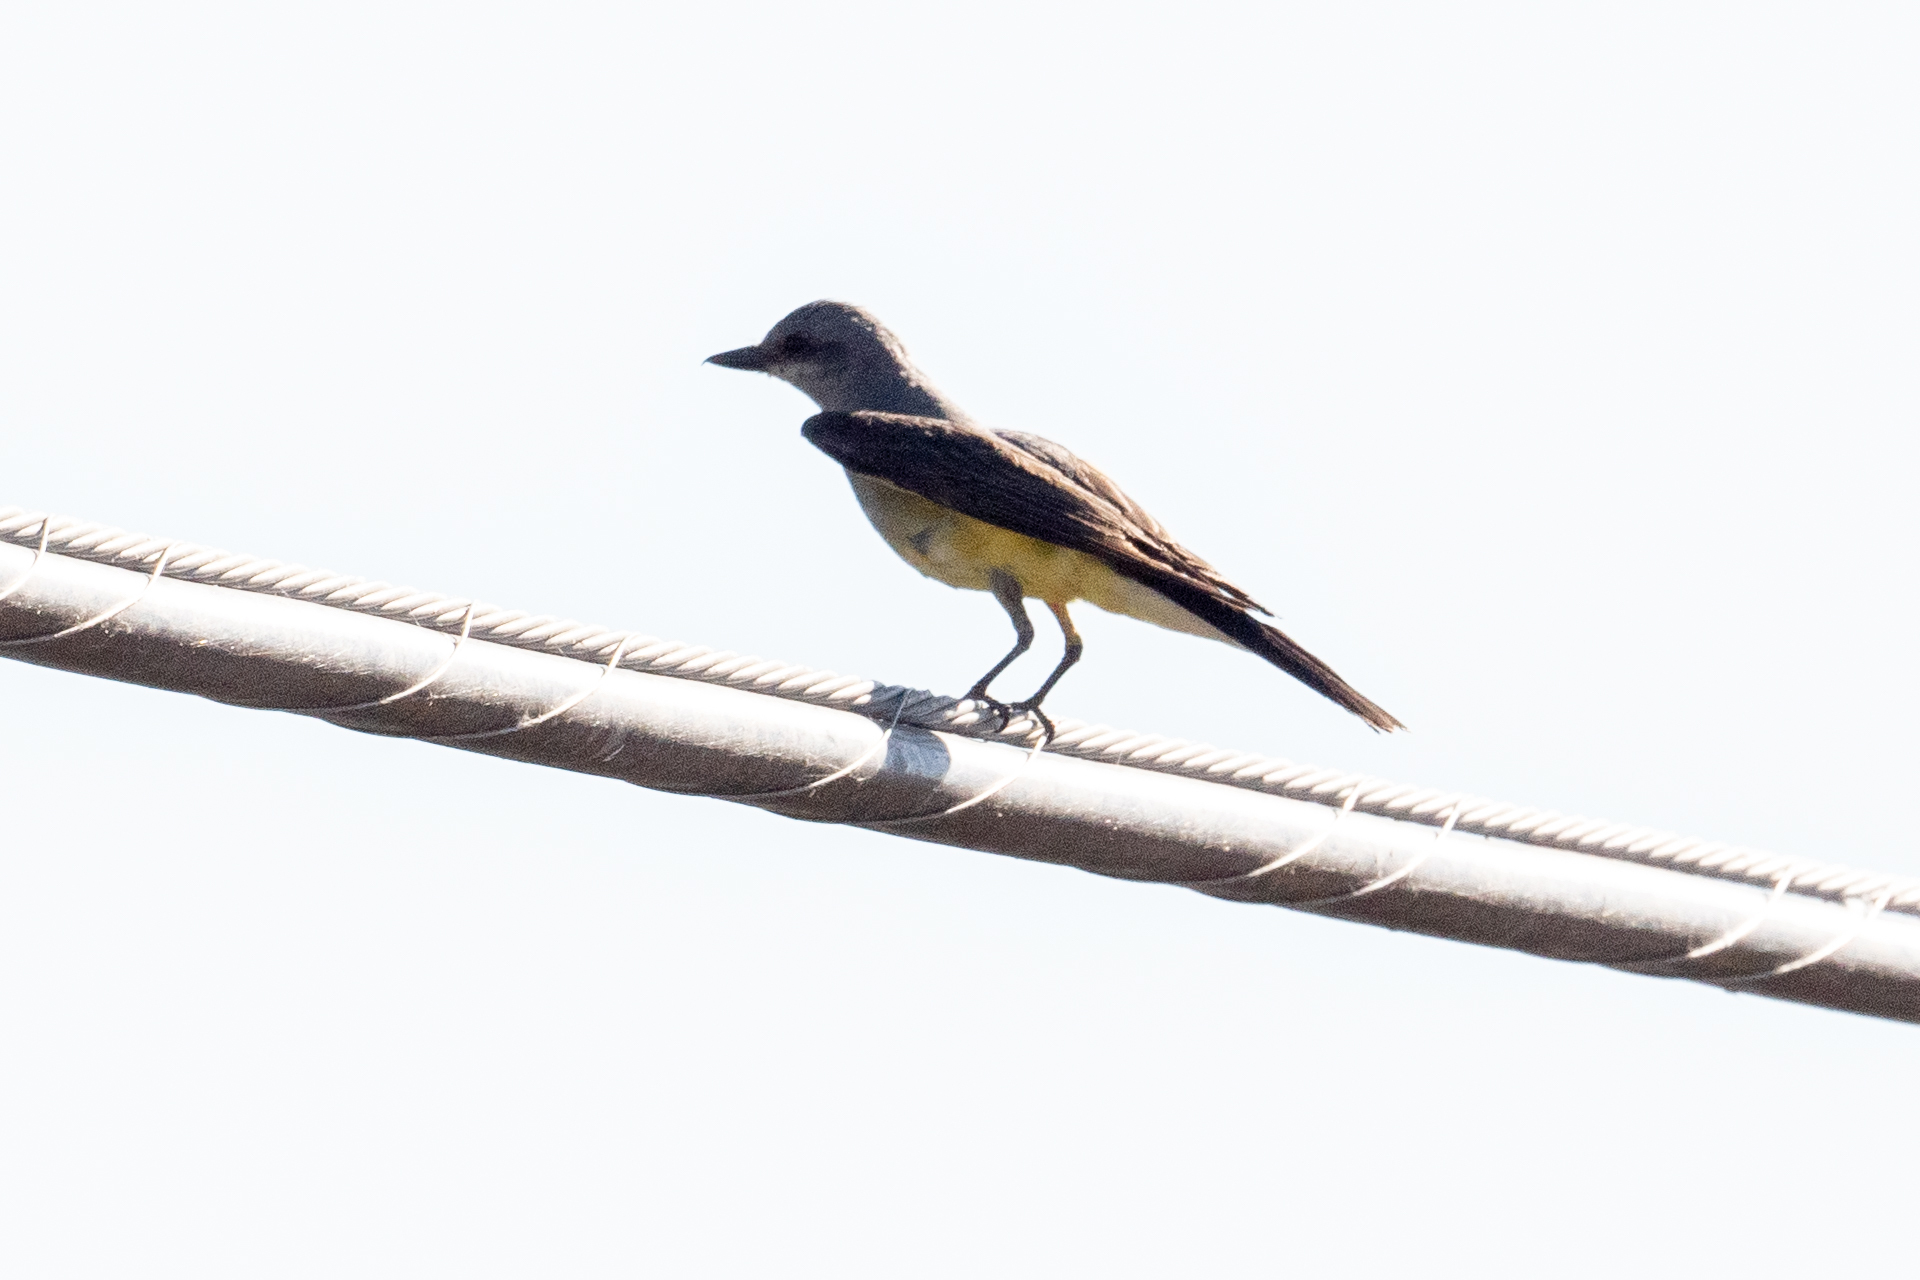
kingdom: Animalia
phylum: Chordata
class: Aves
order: Passeriformes
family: Tyrannidae
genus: Tyrannus
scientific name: Tyrannus verticalis
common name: Western kingbird
